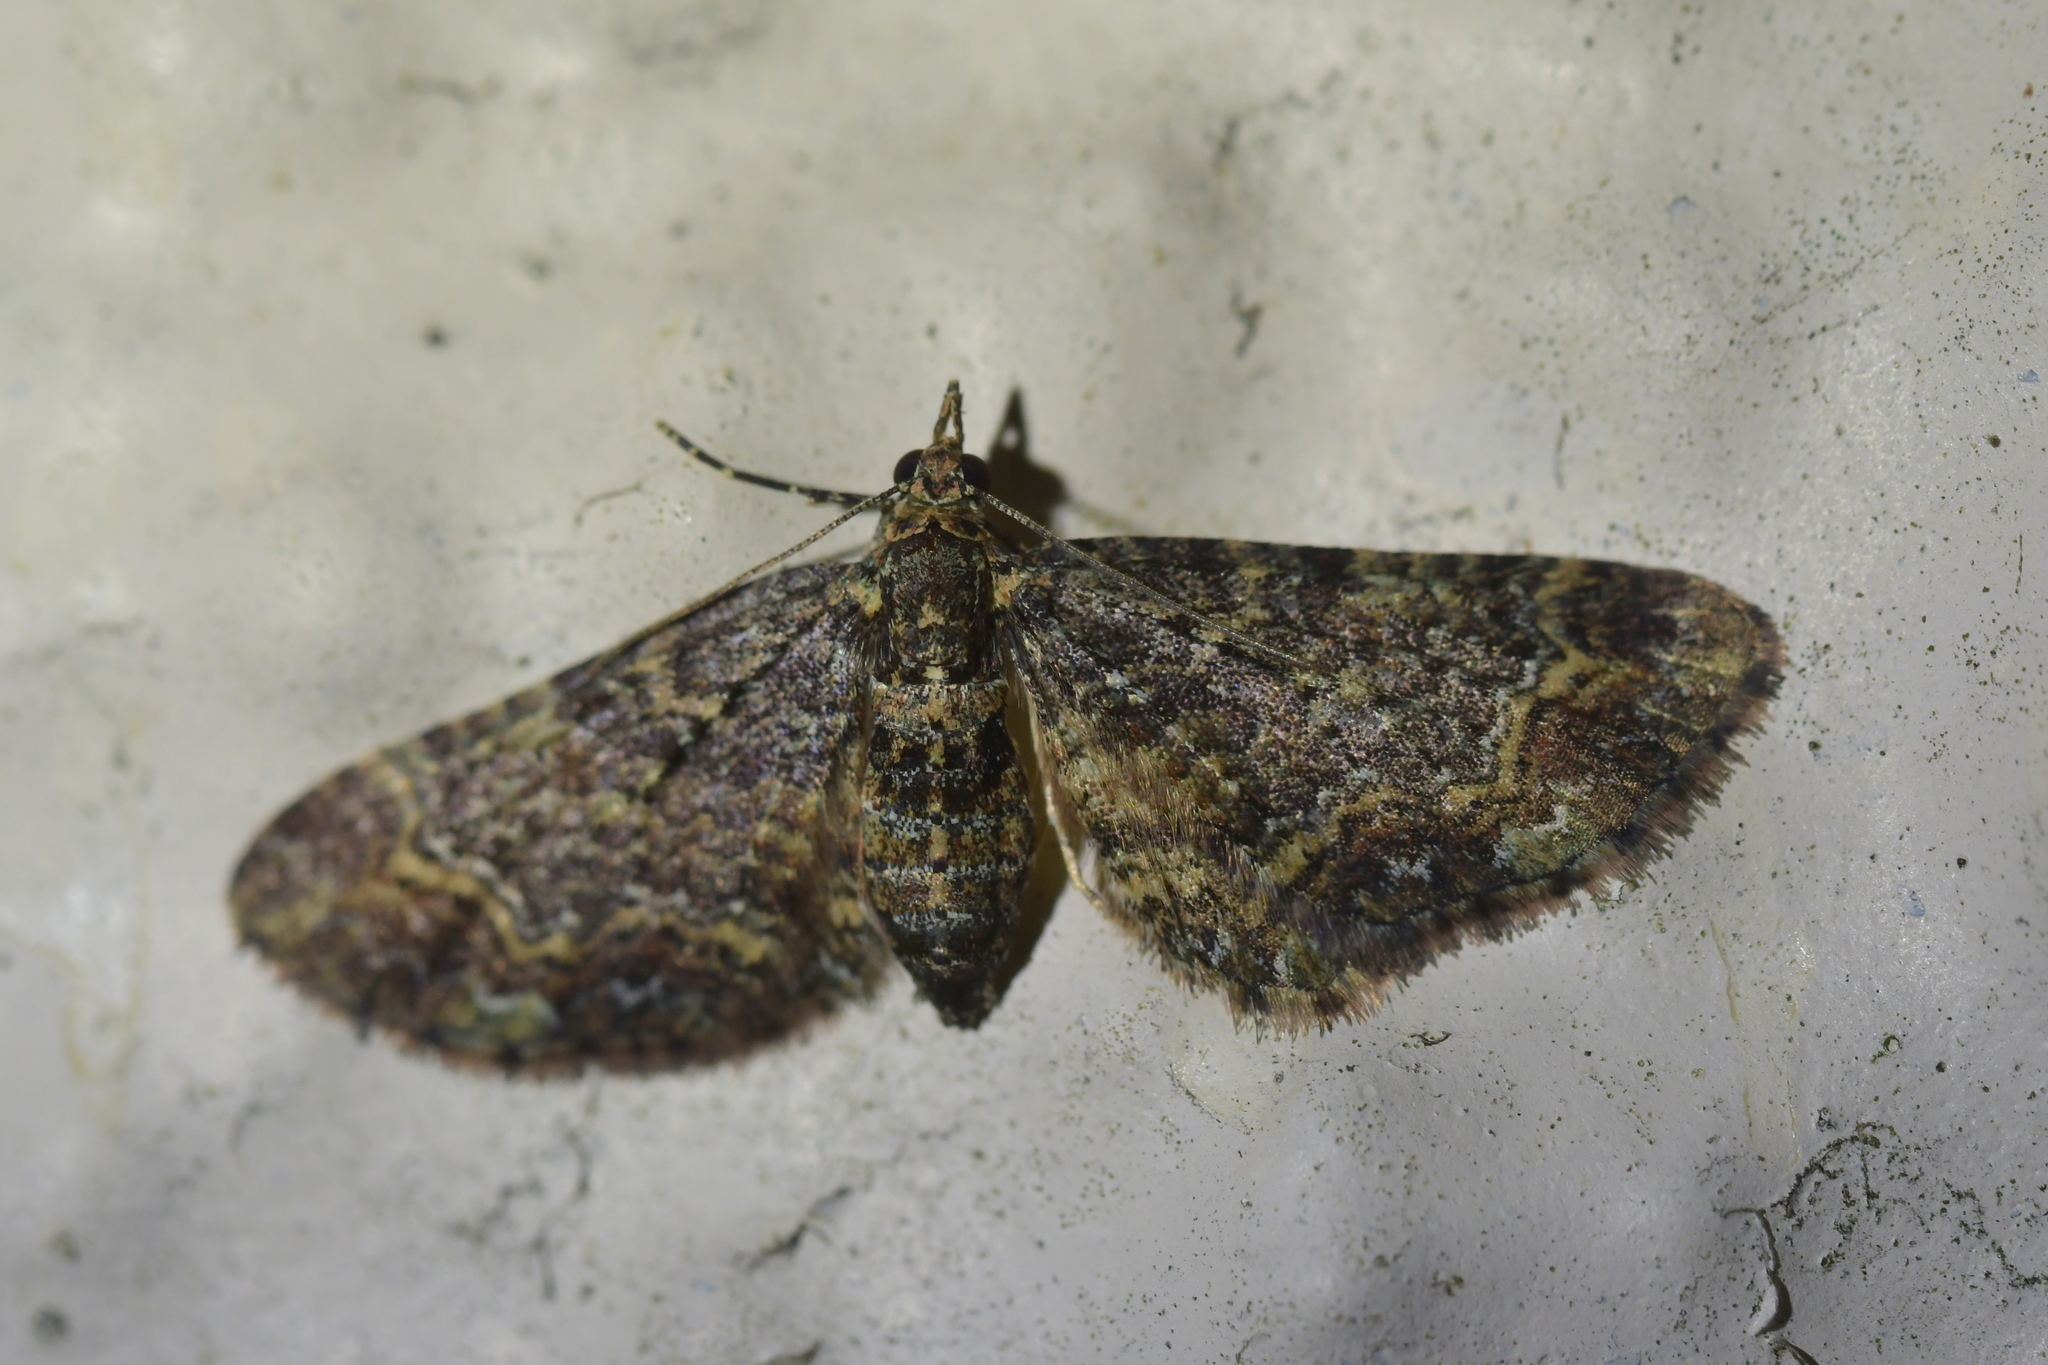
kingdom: Animalia
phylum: Arthropoda
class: Insecta
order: Lepidoptera
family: Geometridae
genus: Pasiphila
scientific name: Pasiphila lunata
